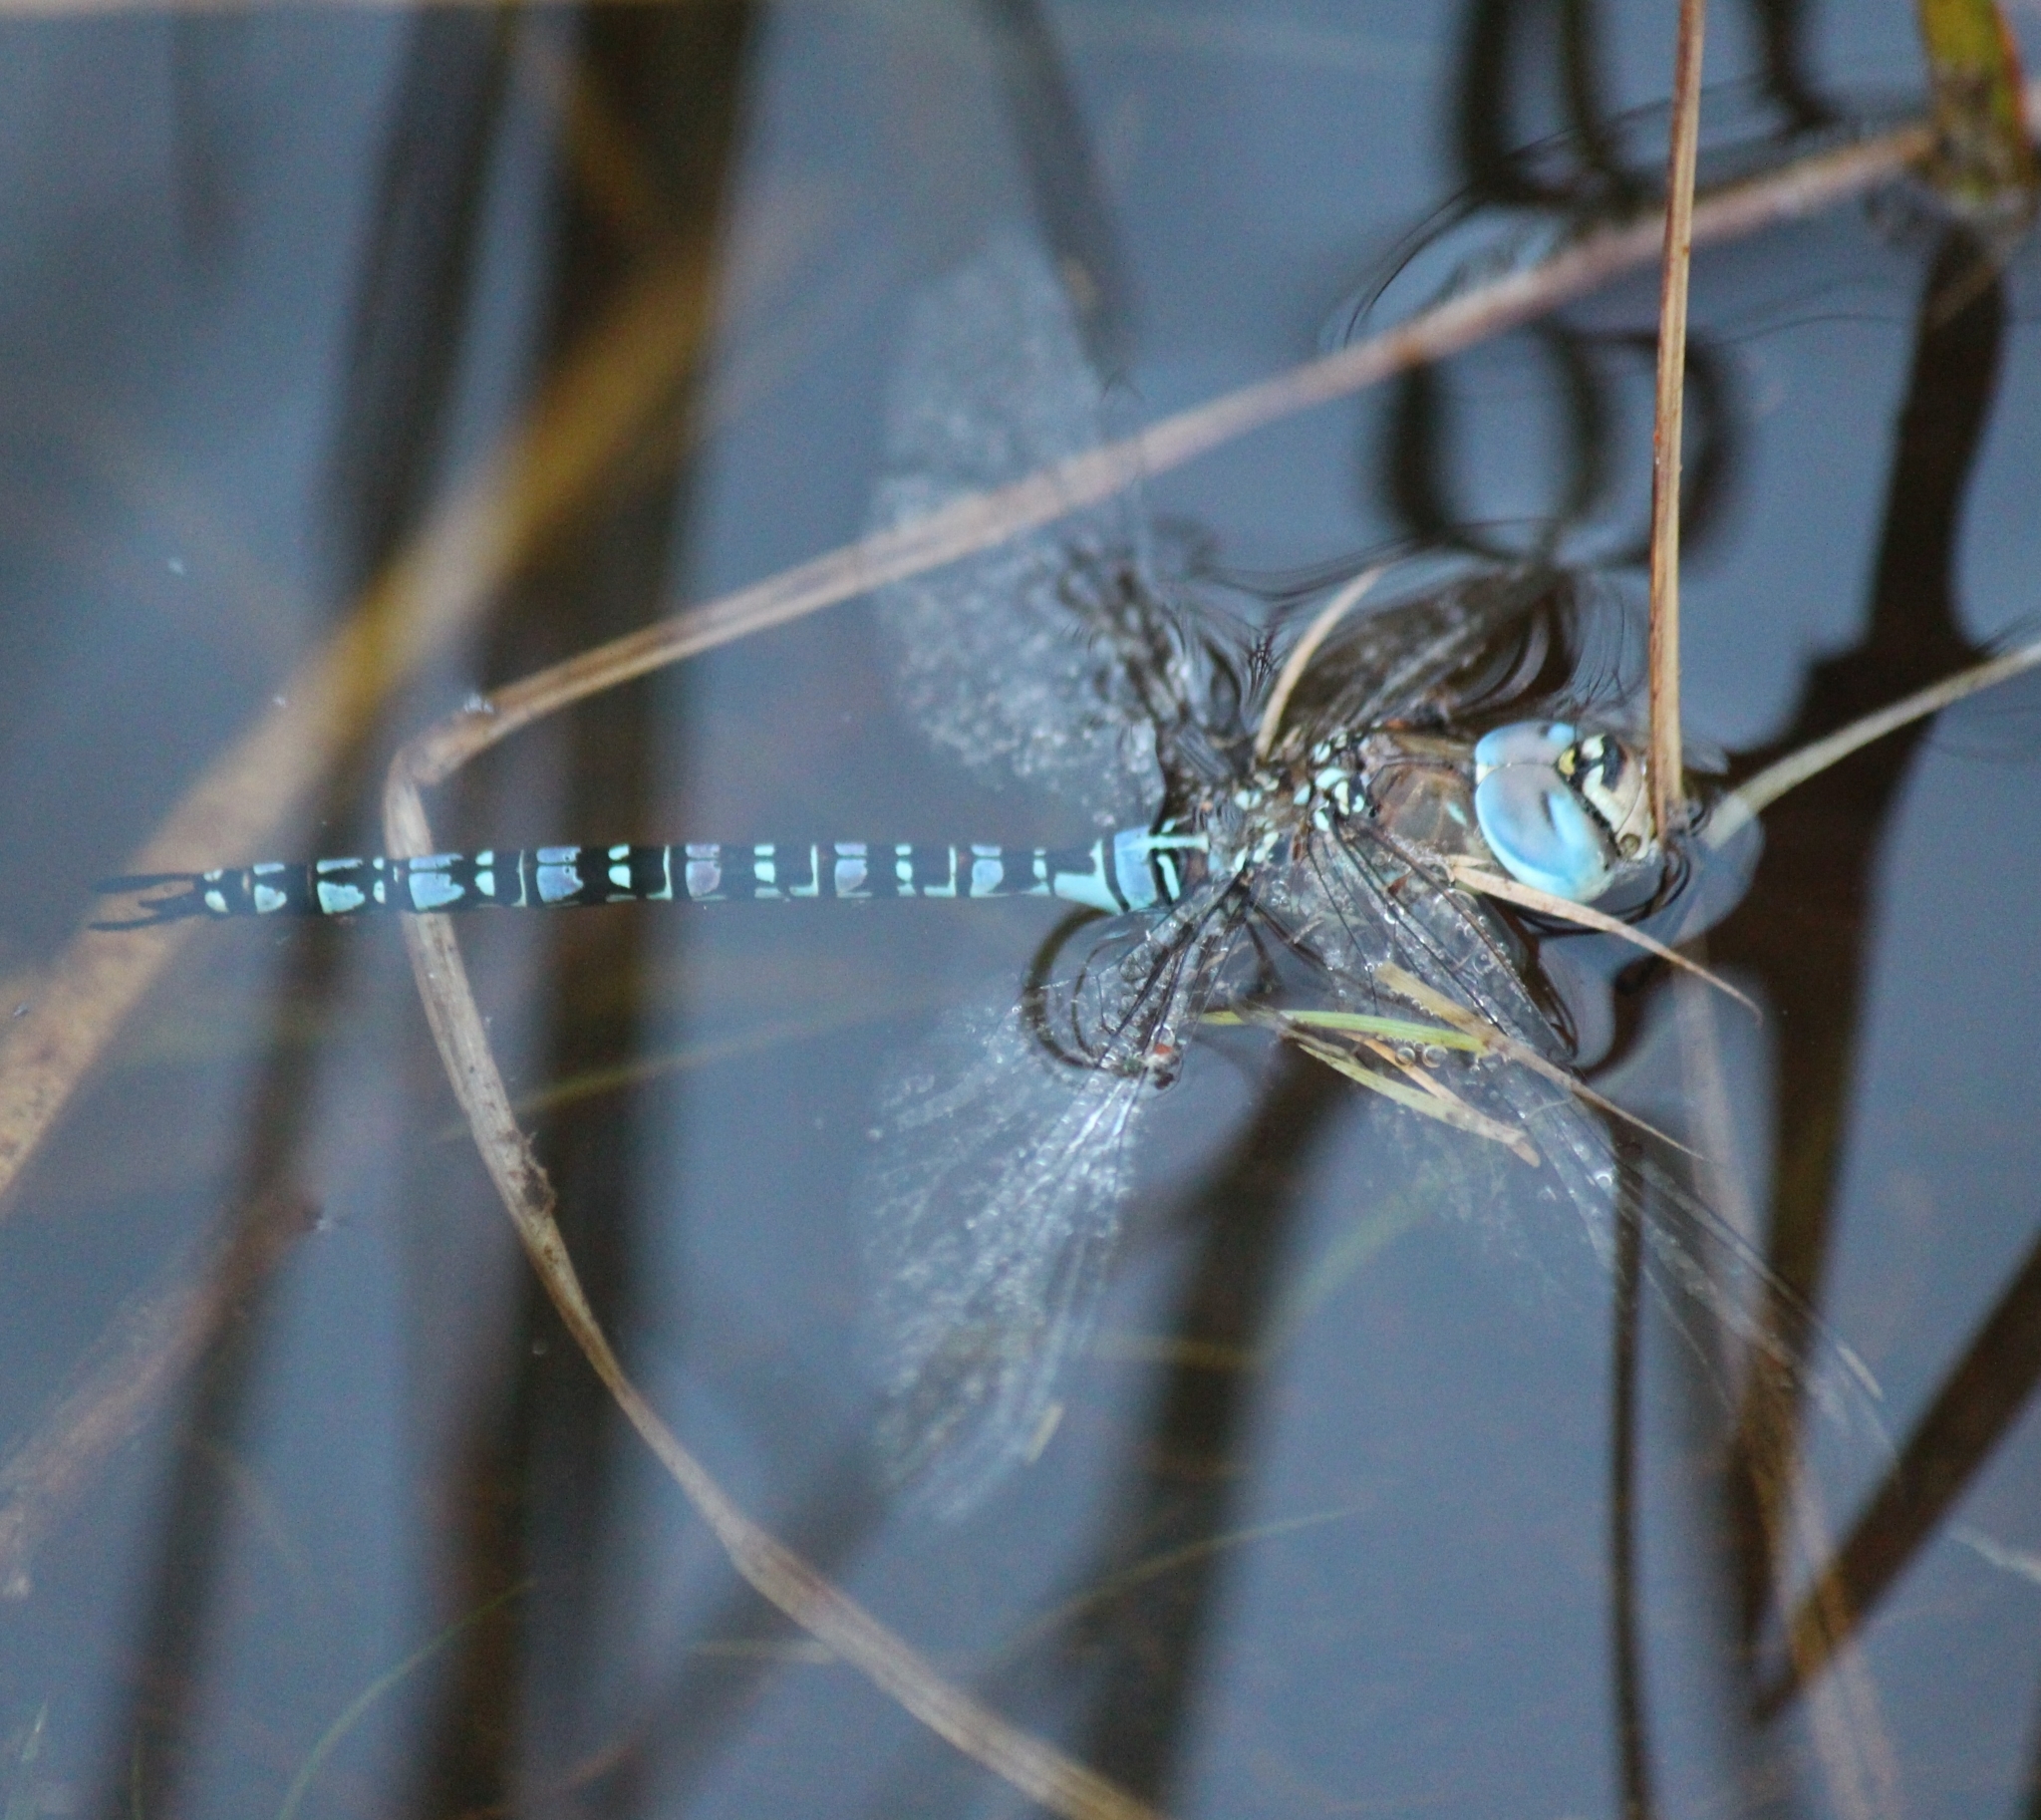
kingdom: Animalia
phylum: Arthropoda
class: Insecta
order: Odonata
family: Aeshnidae
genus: Aeshna
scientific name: Aeshna soneharai
